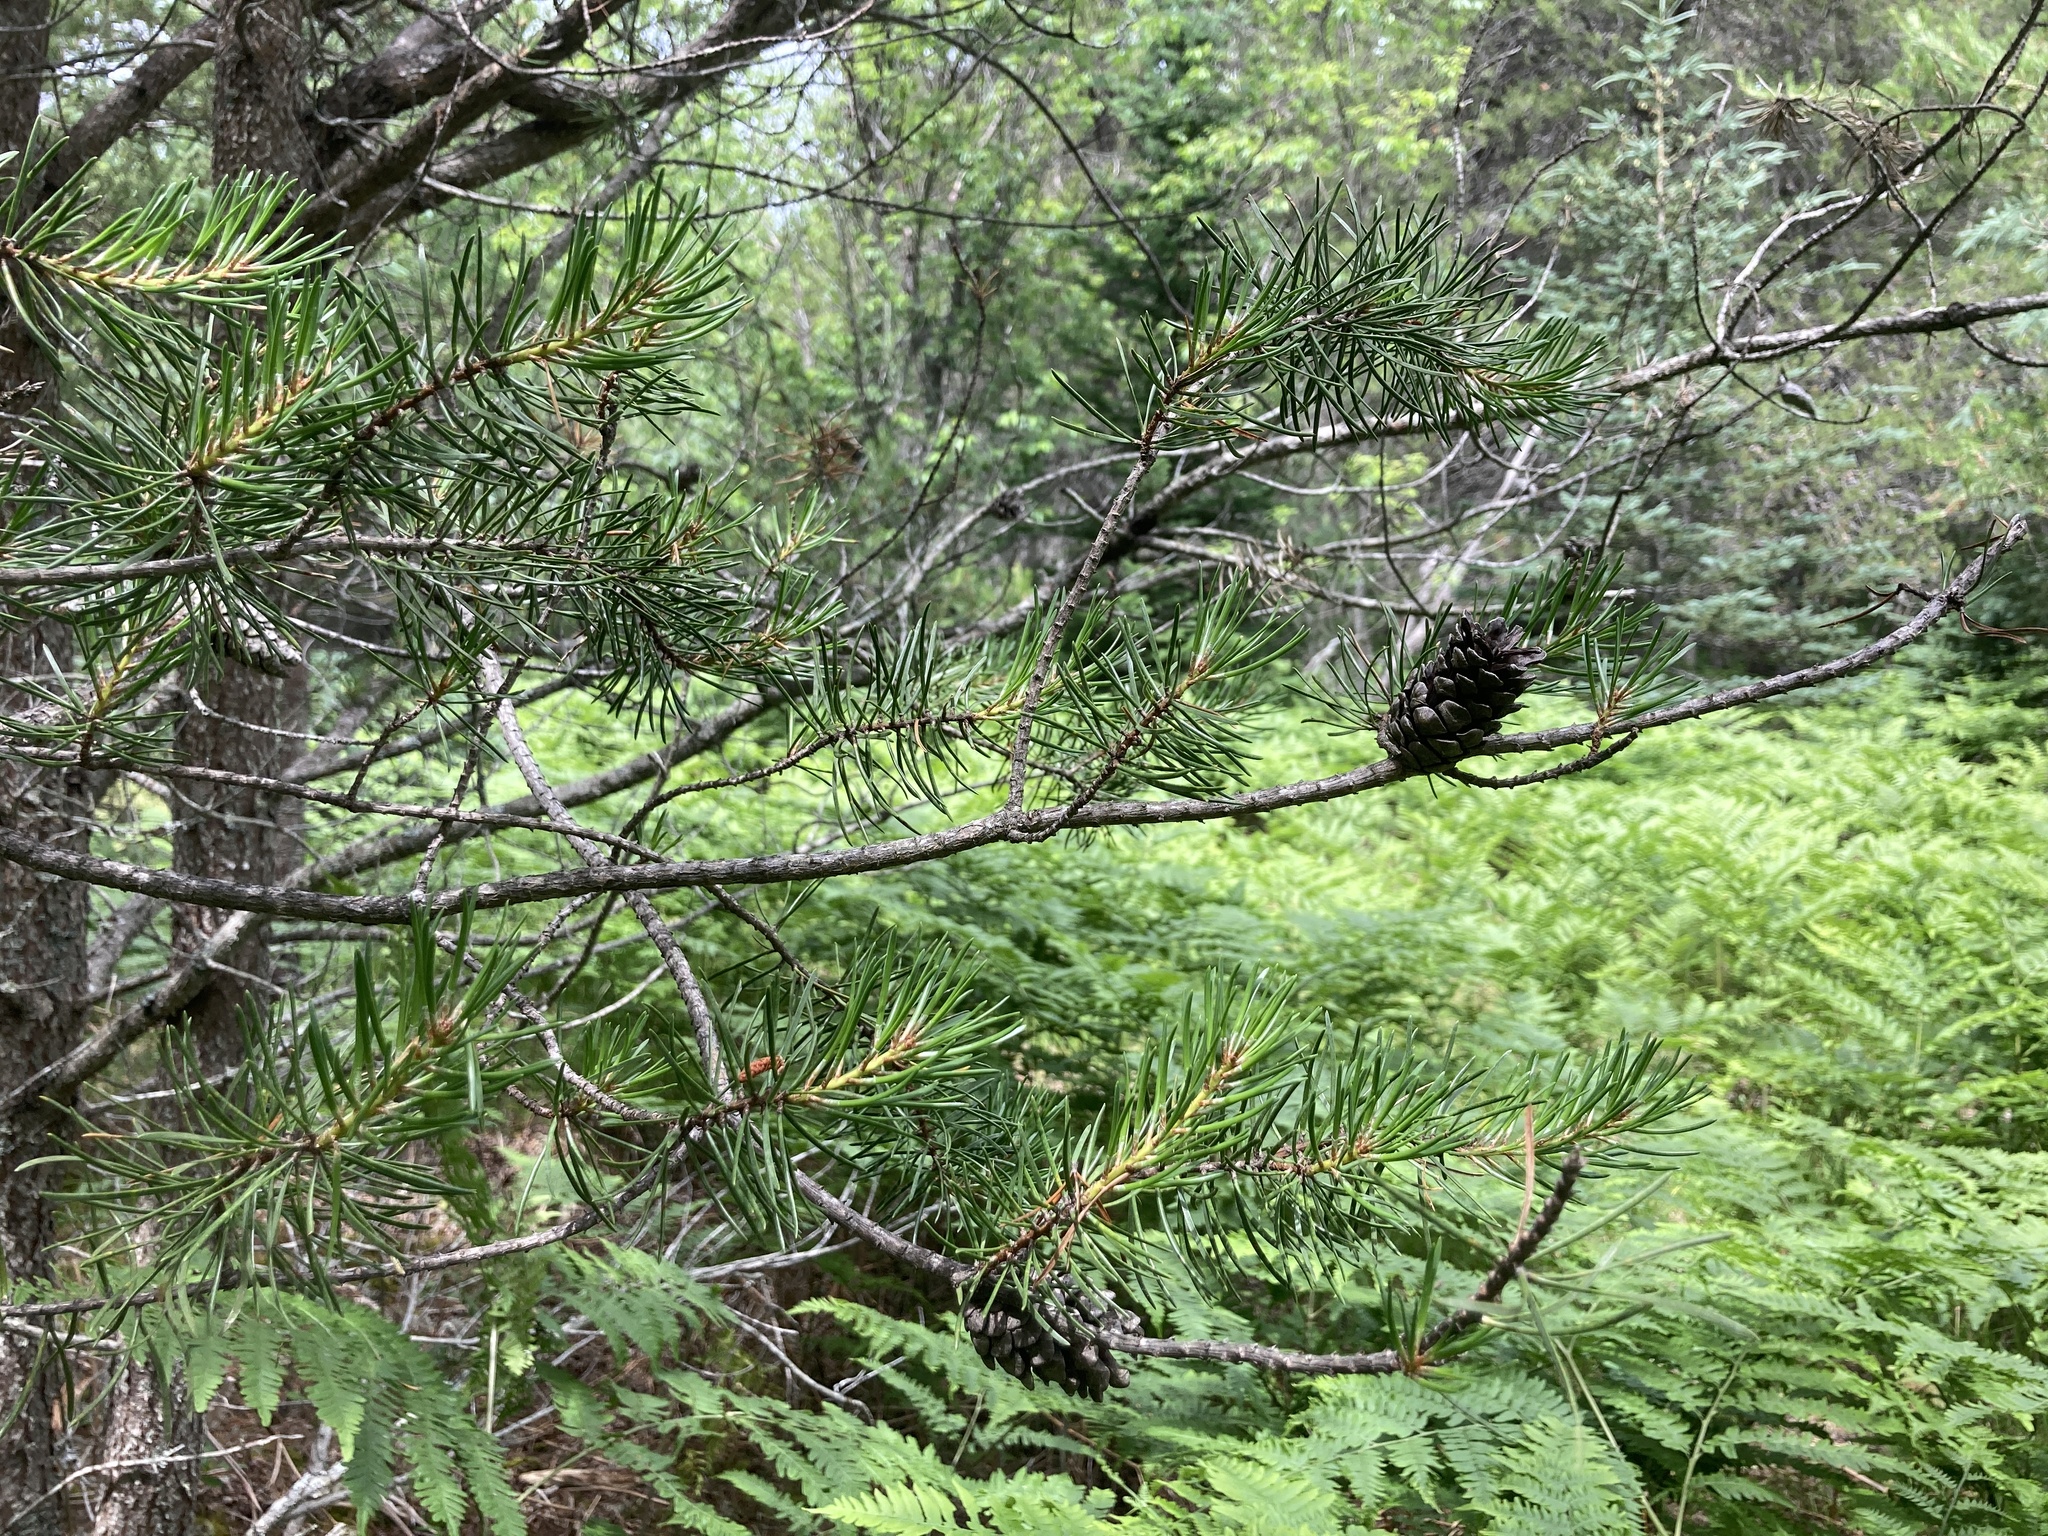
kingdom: Plantae
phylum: Tracheophyta
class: Pinopsida
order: Pinales
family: Pinaceae
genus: Pinus
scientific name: Pinus banksiana
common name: Jack pine
